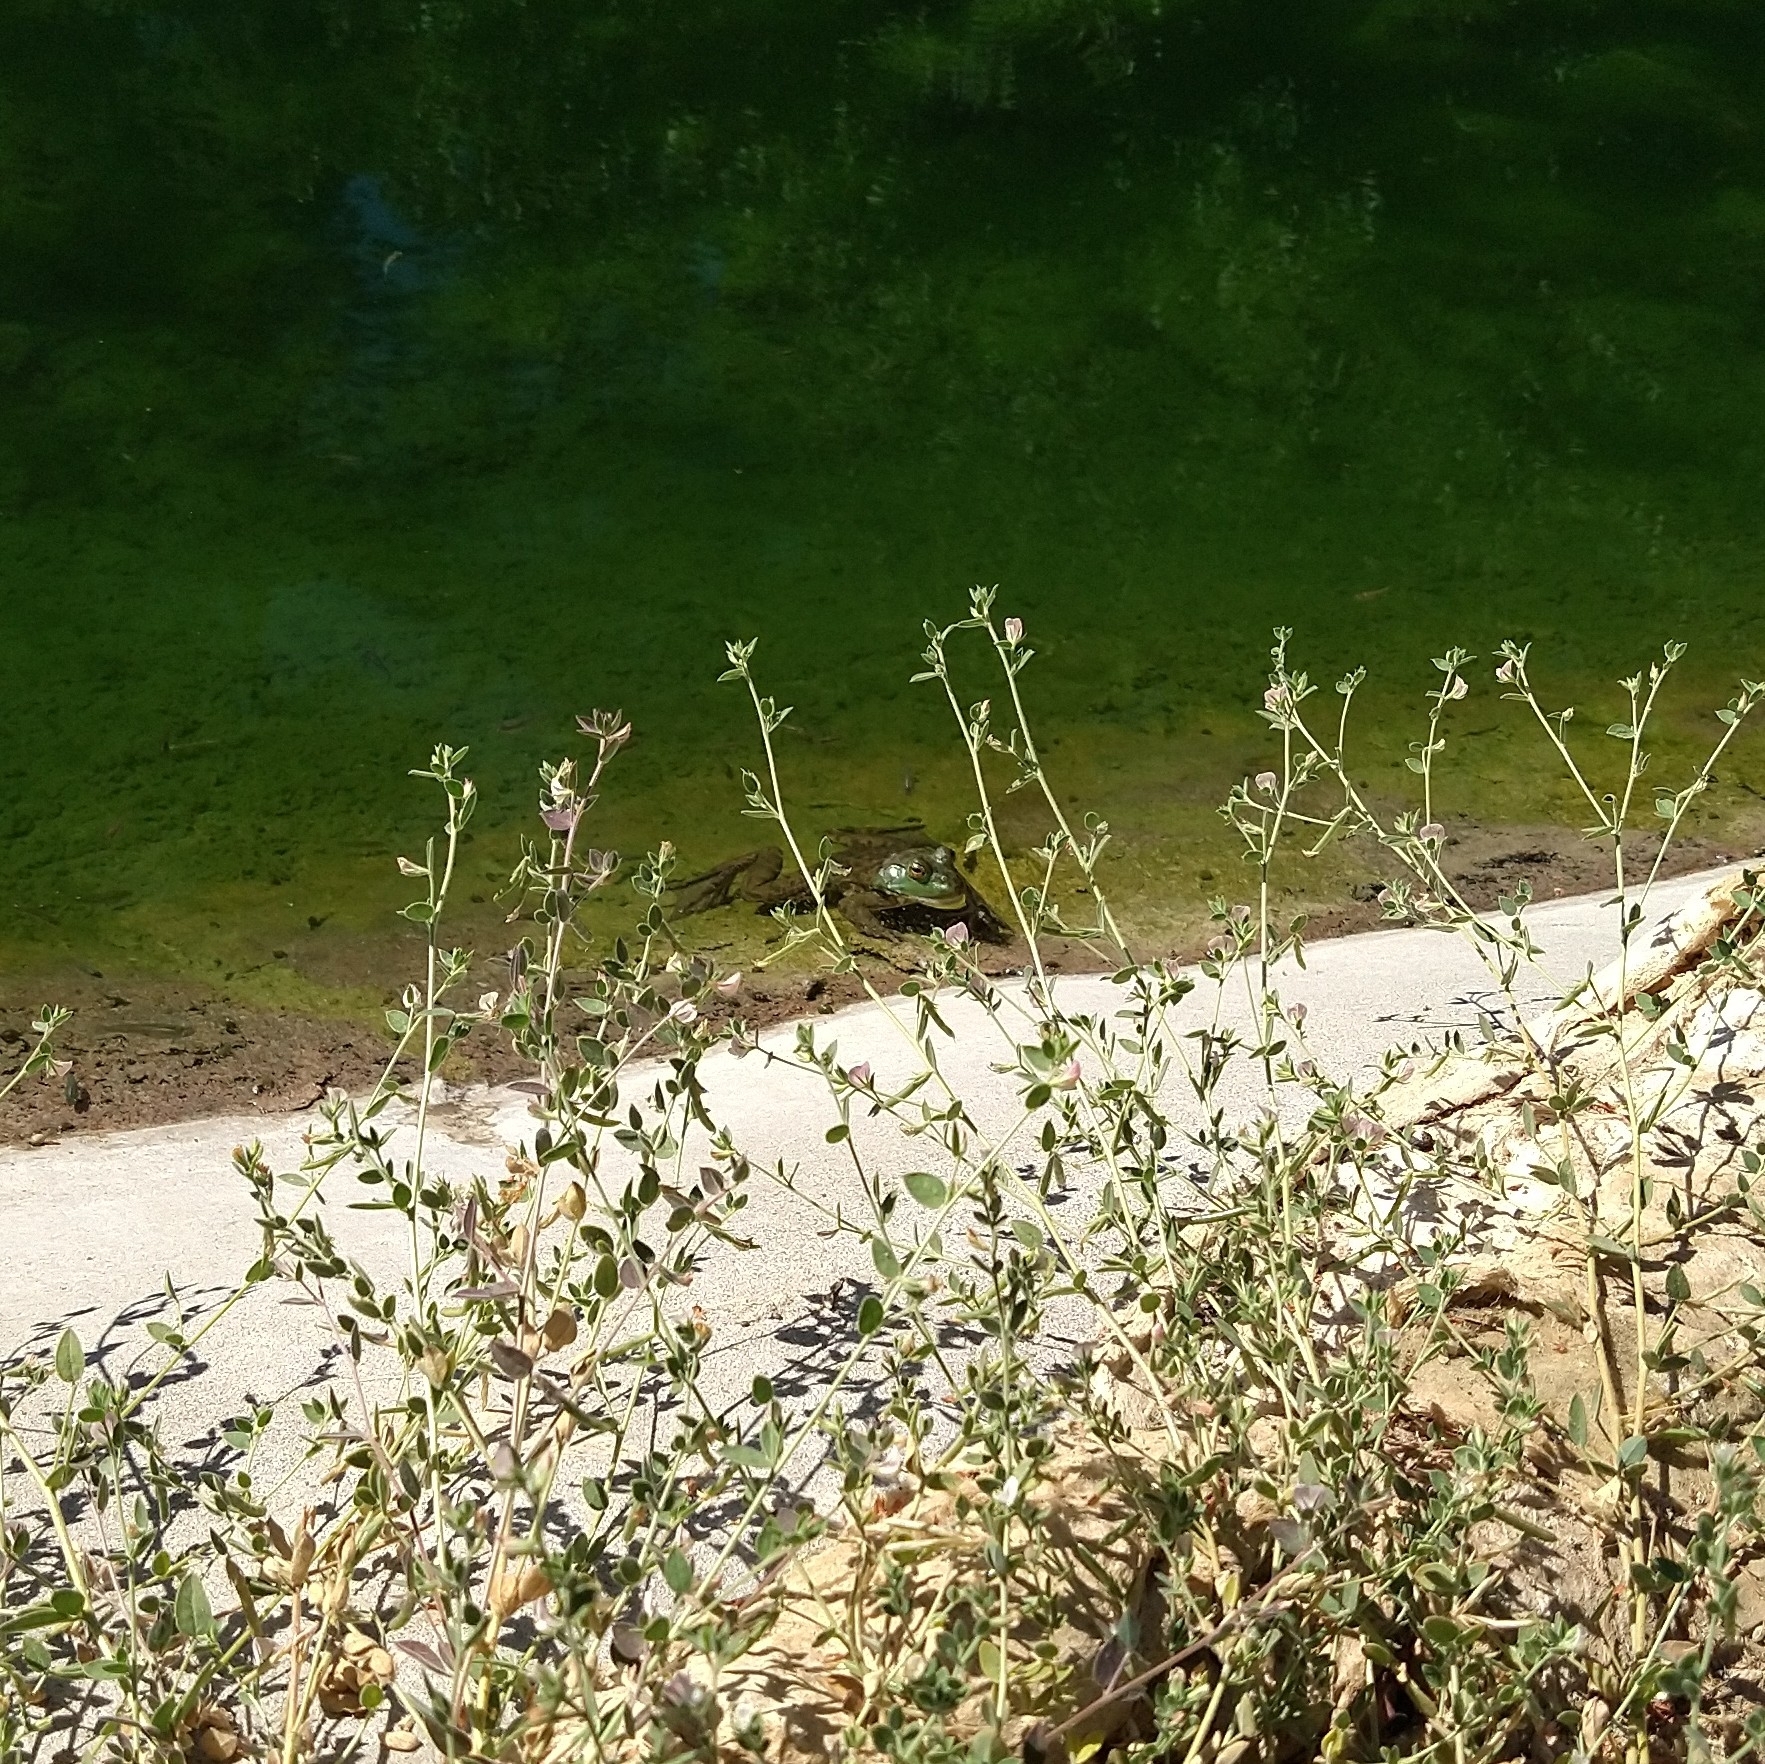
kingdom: Animalia
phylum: Chordata
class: Amphibia
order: Anura
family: Ranidae
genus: Lithobates
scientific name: Lithobates catesbeianus
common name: American bullfrog
